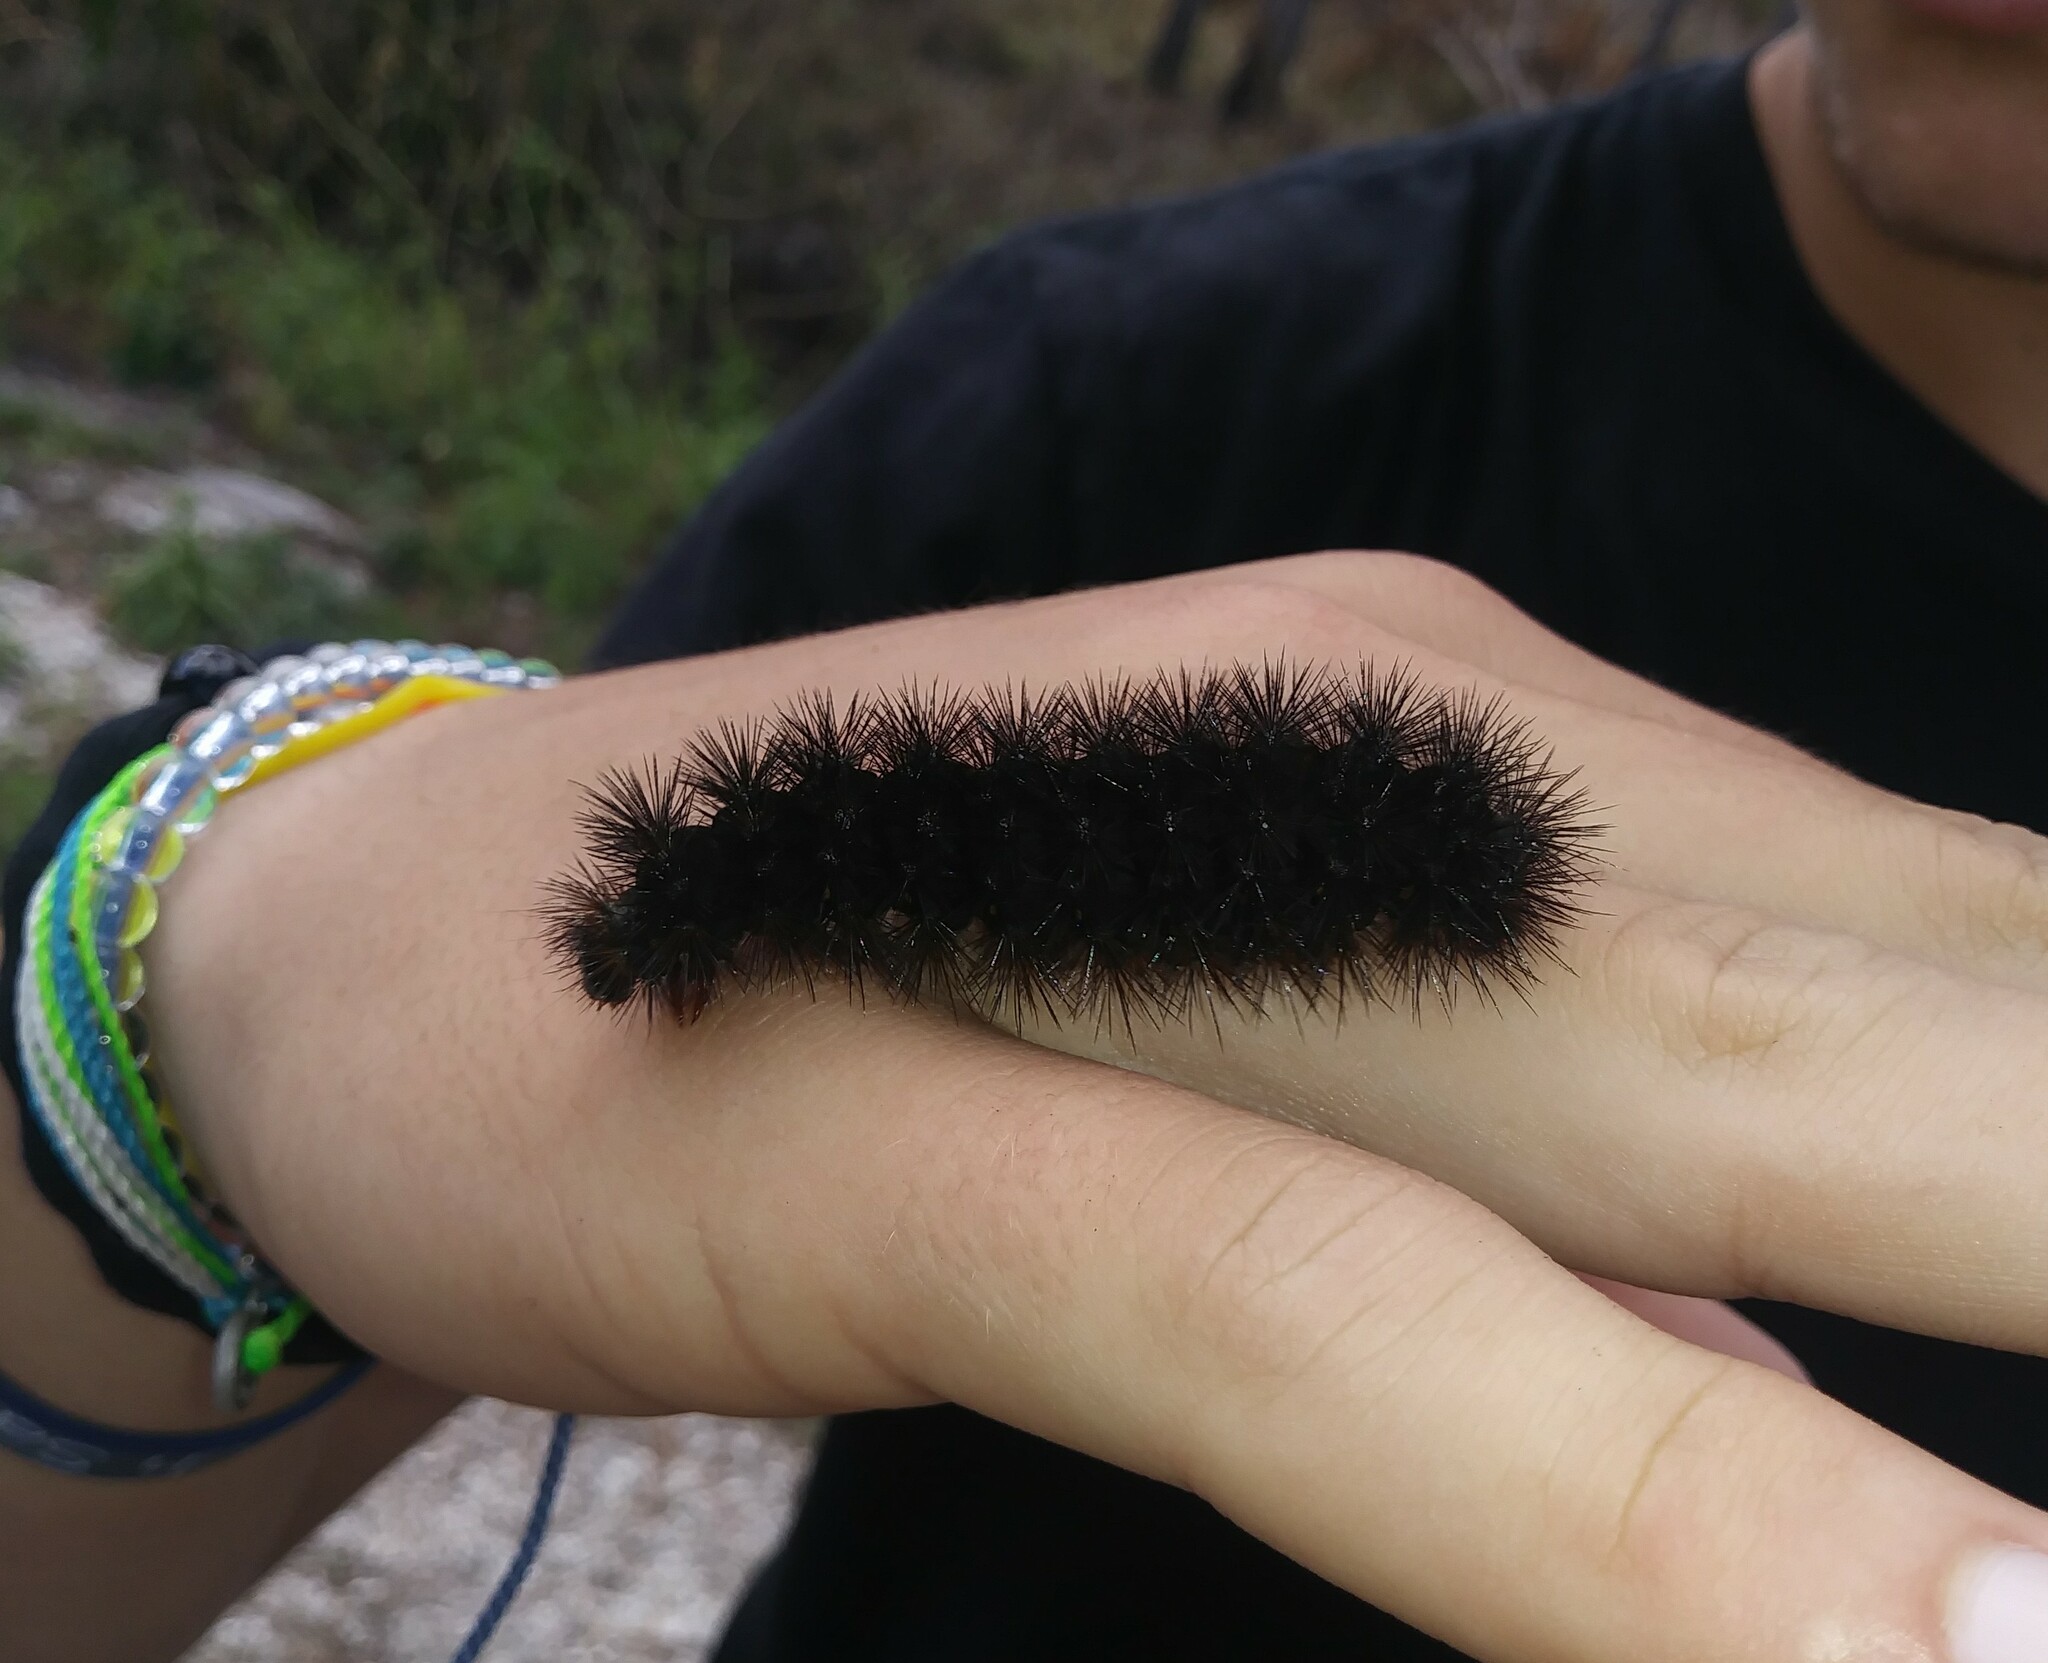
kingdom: Animalia
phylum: Arthropoda
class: Insecta
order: Lepidoptera
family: Erebidae
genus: Hypercompe
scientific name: Hypercompe scribonia
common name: Giant leopard moth
